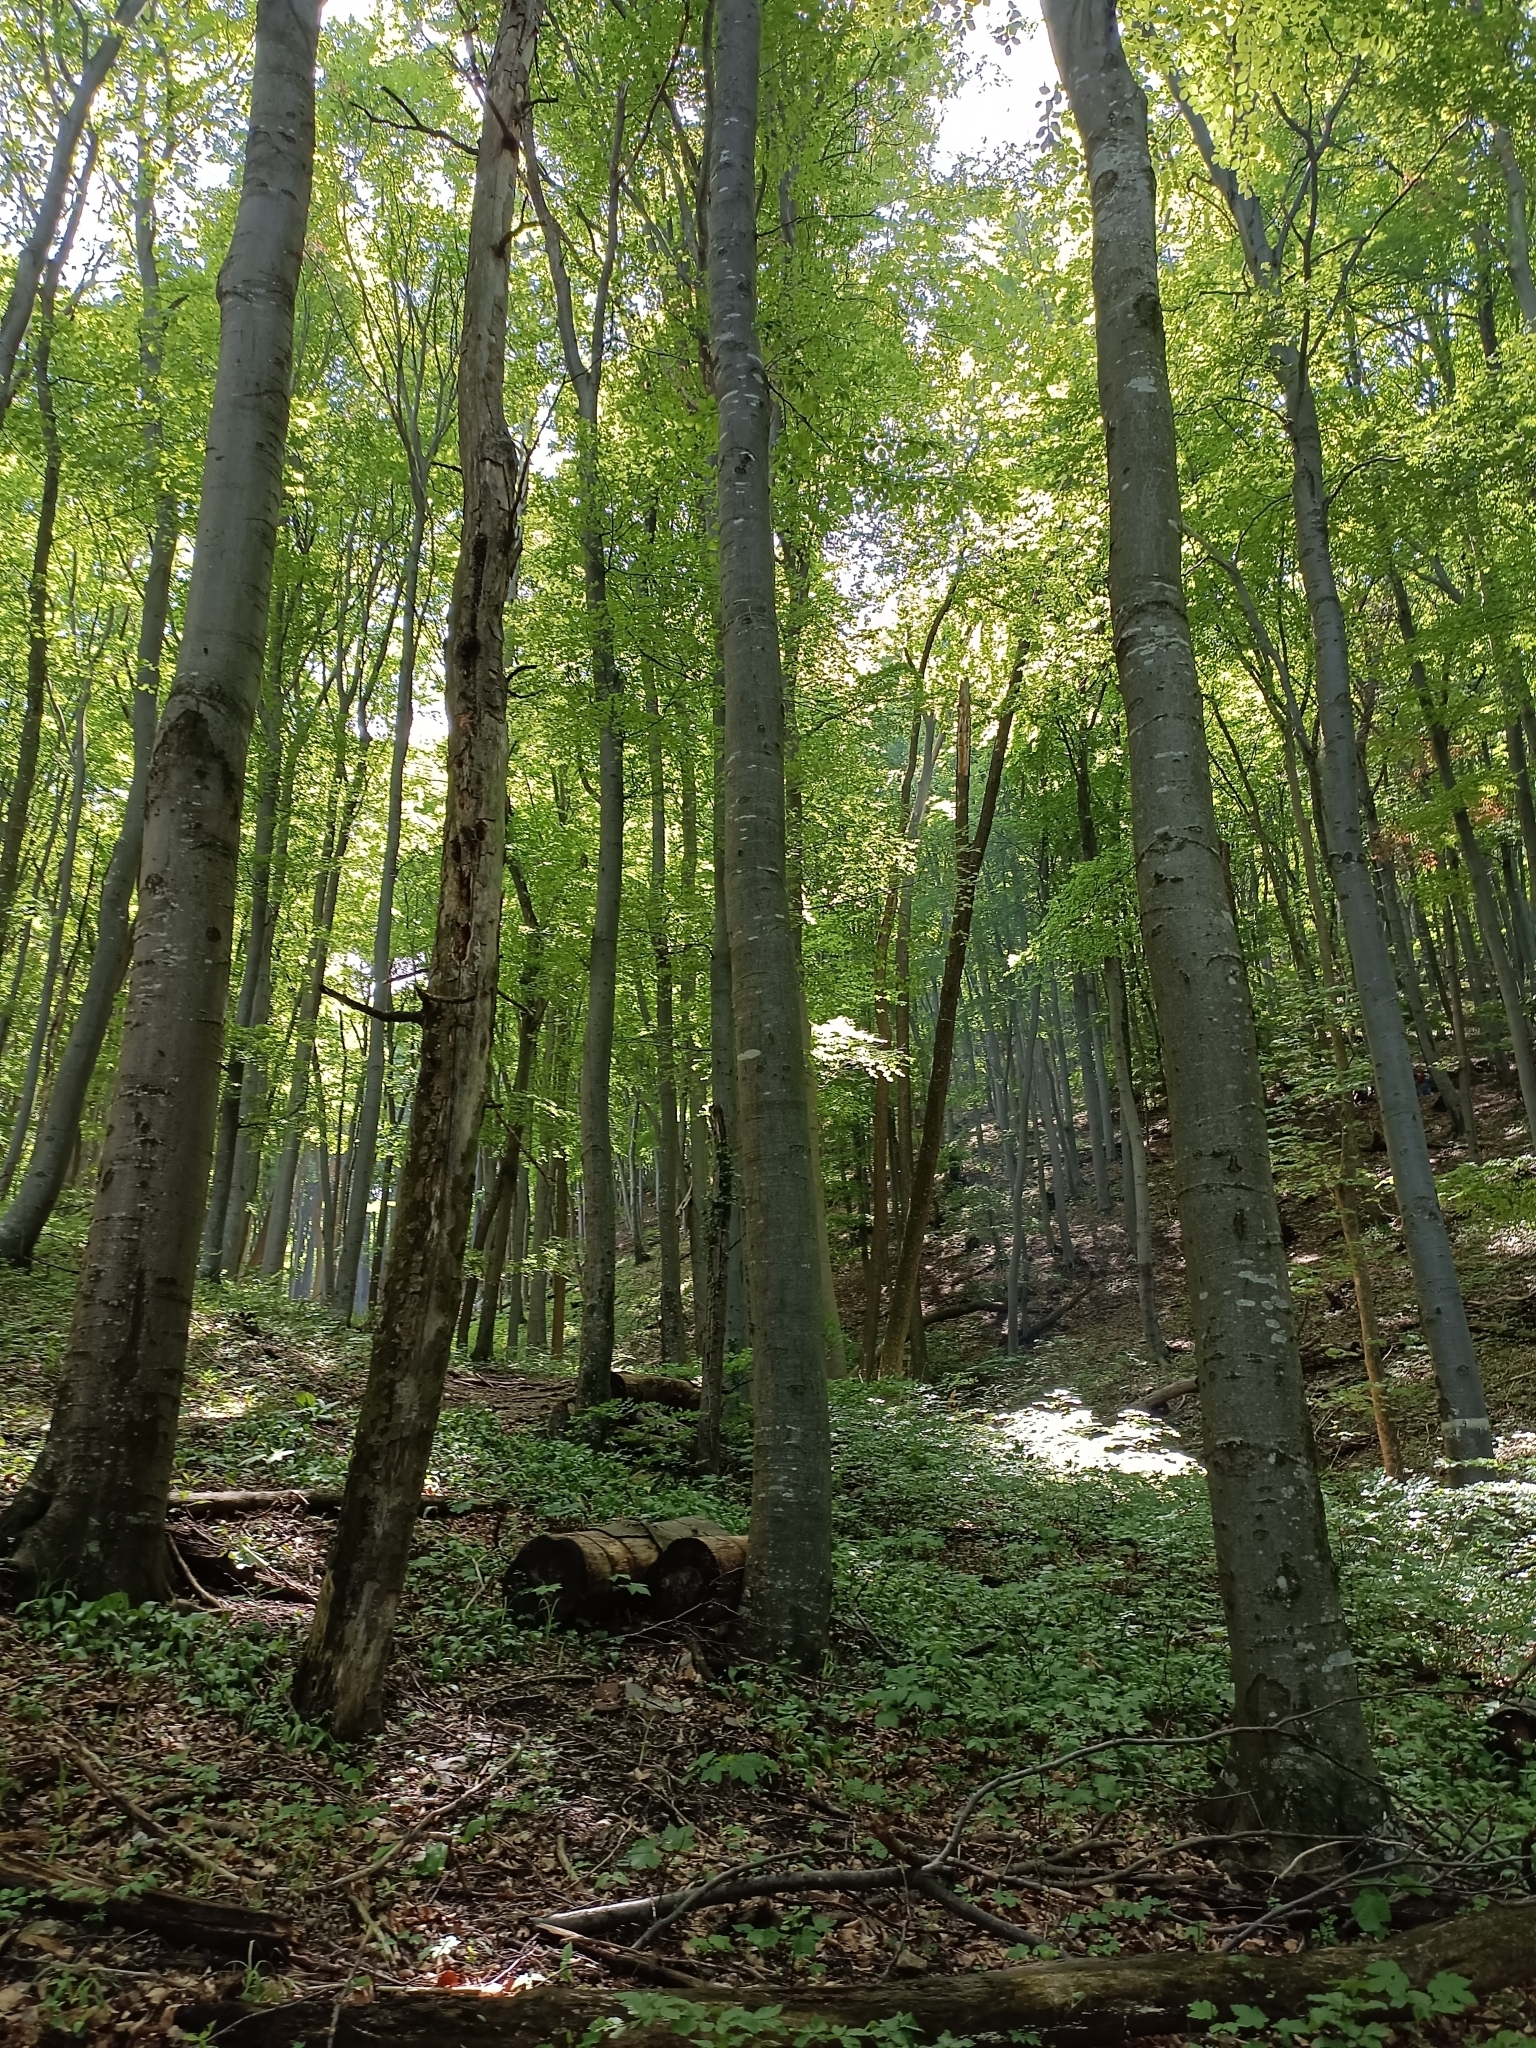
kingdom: Plantae
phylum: Tracheophyta
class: Magnoliopsida
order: Fagales
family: Fagaceae
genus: Fagus
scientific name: Fagus sylvatica
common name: Beech
